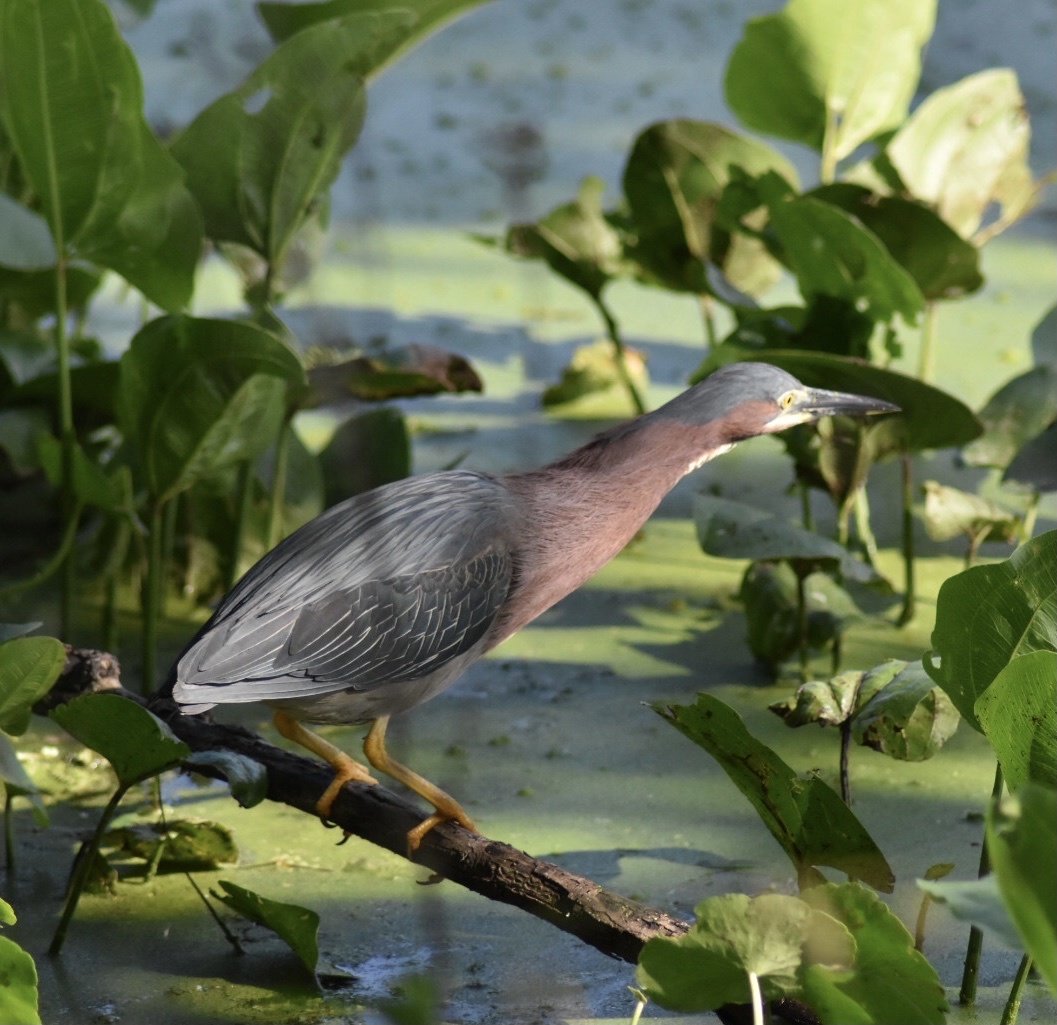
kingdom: Animalia
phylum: Chordata
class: Aves
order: Pelecaniformes
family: Ardeidae
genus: Butorides
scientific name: Butorides virescens
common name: Green heron
